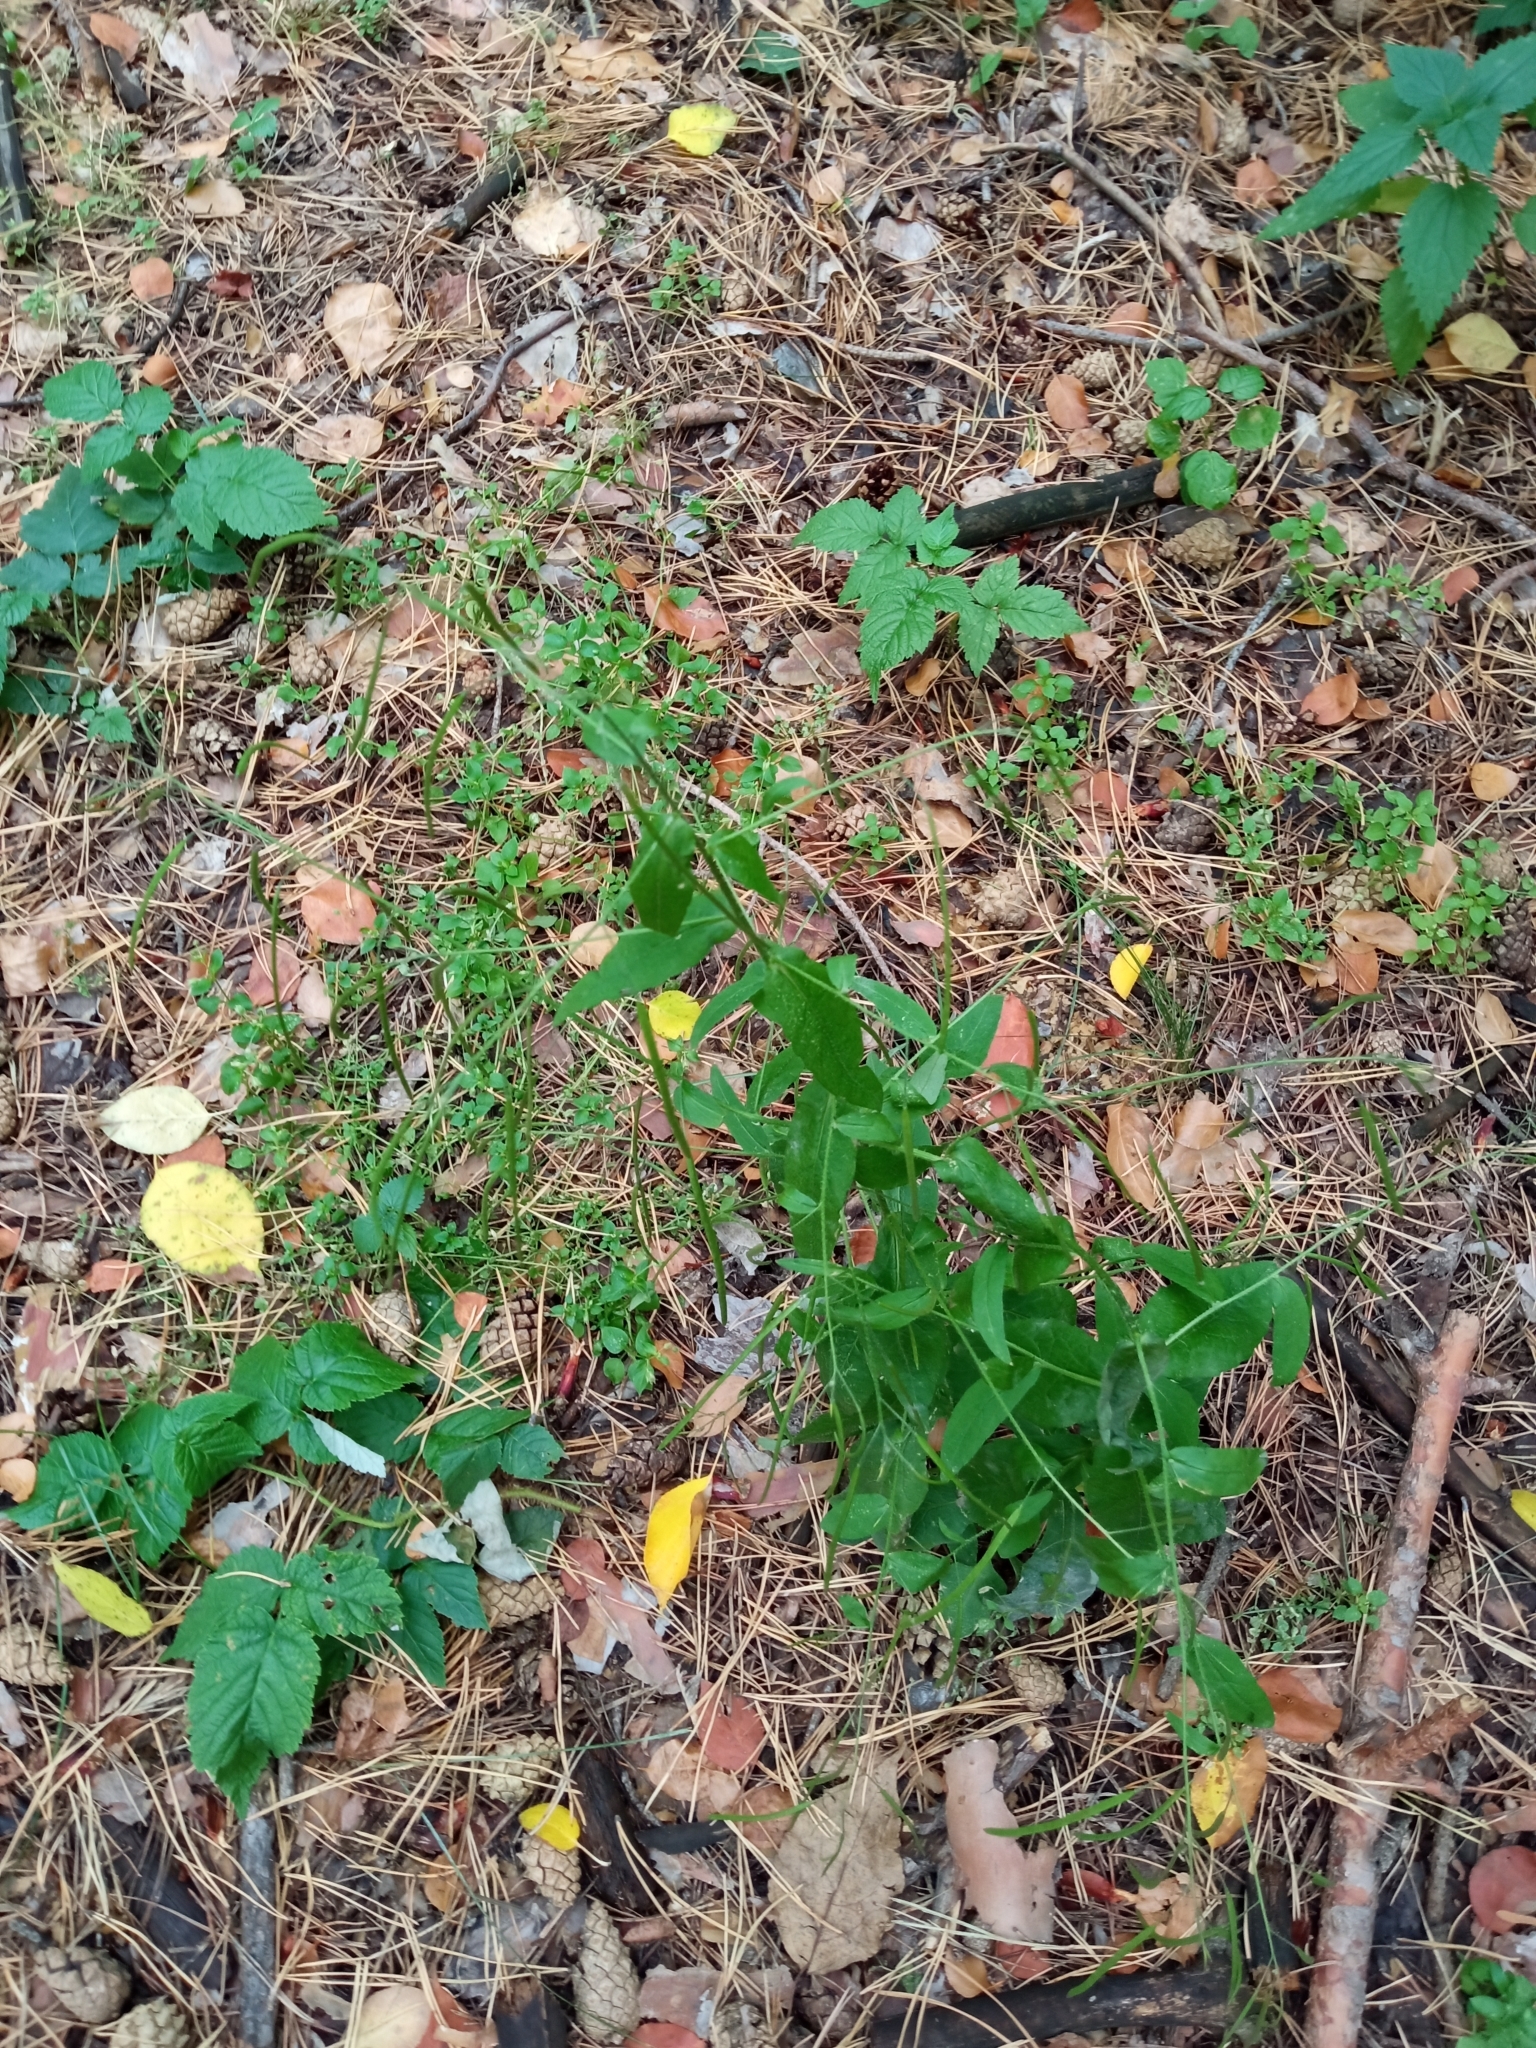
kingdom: Plantae
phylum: Tracheophyta
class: Magnoliopsida
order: Brassicales
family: Brassicaceae
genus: Catolobus
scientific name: Catolobus pendulus
